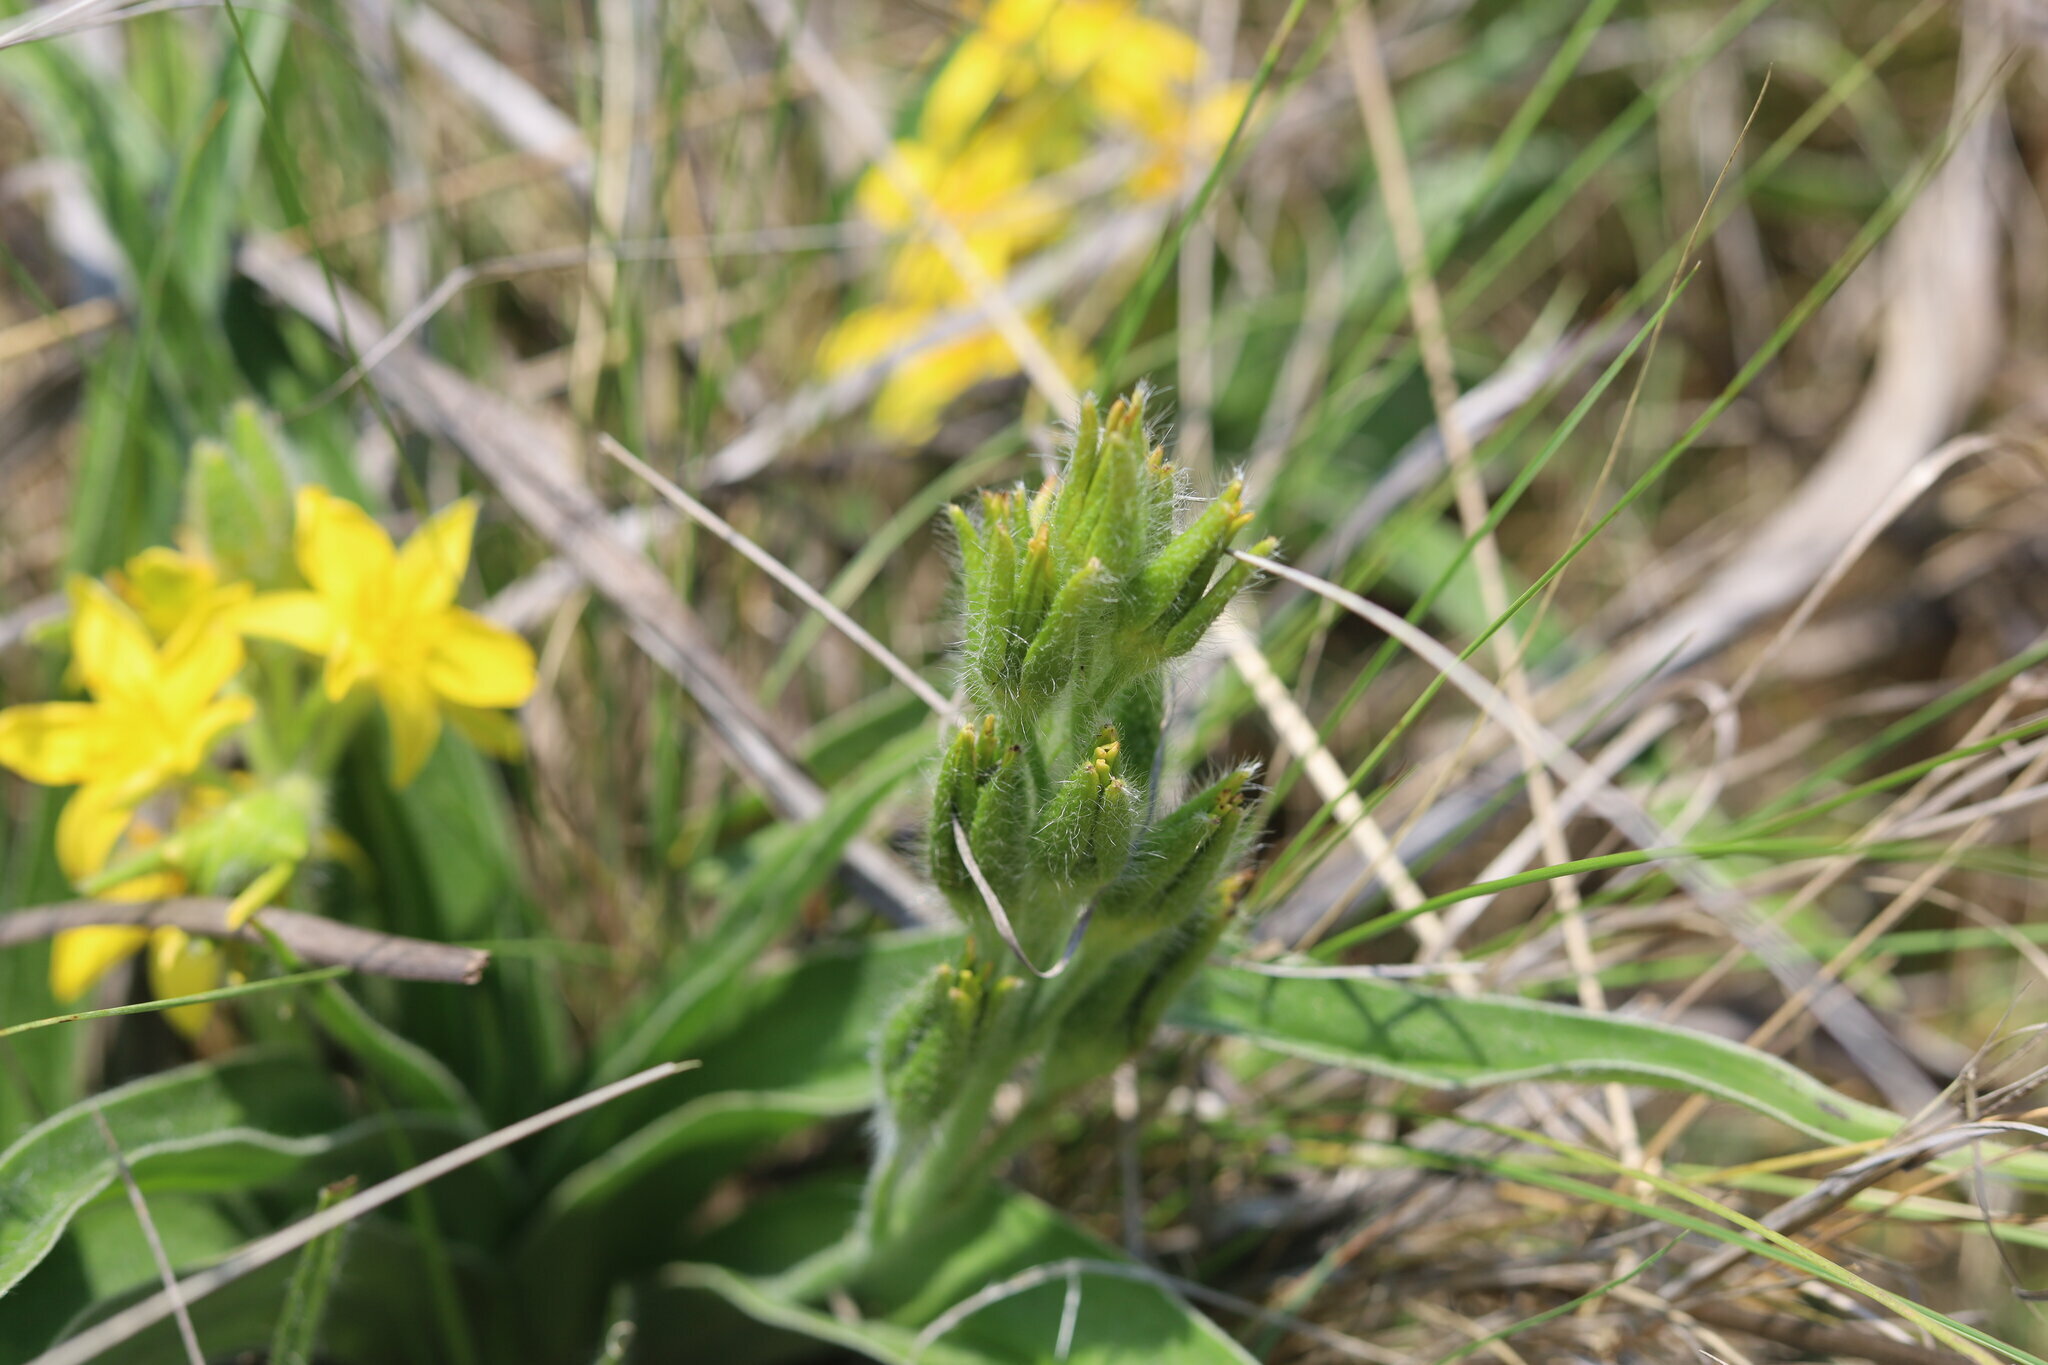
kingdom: Plantae
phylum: Tracheophyta
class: Liliopsida
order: Asparagales
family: Hypoxidaceae
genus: Hypoxis
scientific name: Hypoxis hemerocallidea
